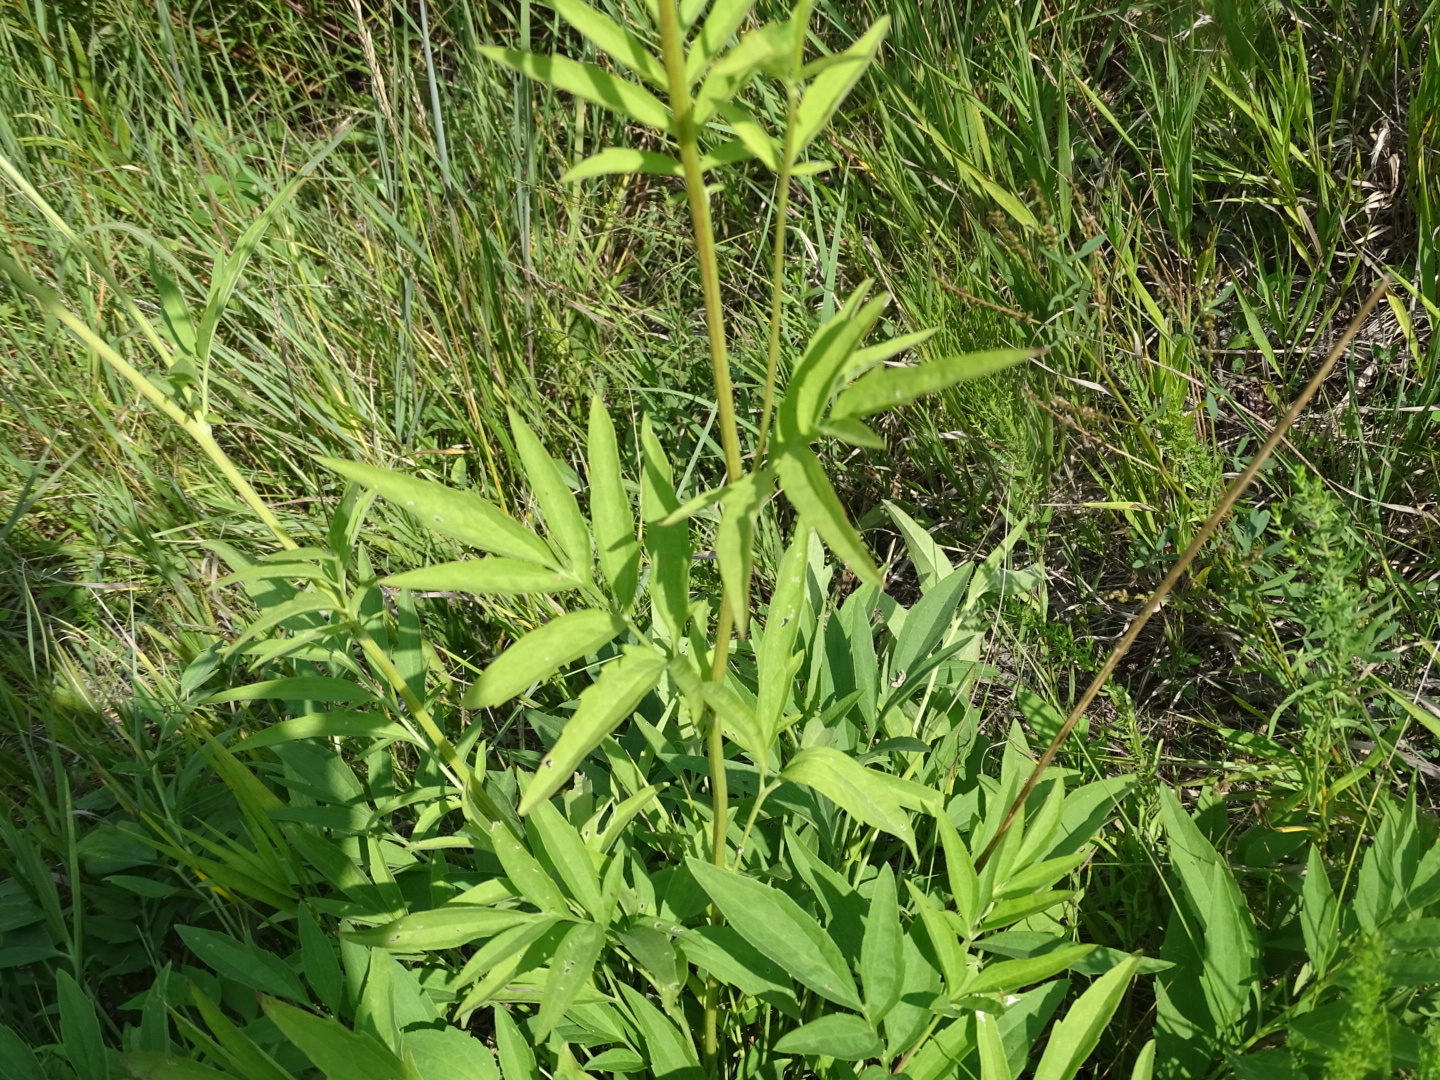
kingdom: Plantae
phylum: Tracheophyta
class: Magnoliopsida
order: Asterales
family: Asteraceae
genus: Ratibida
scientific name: Ratibida pinnata
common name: Drooping prairie-coneflower
